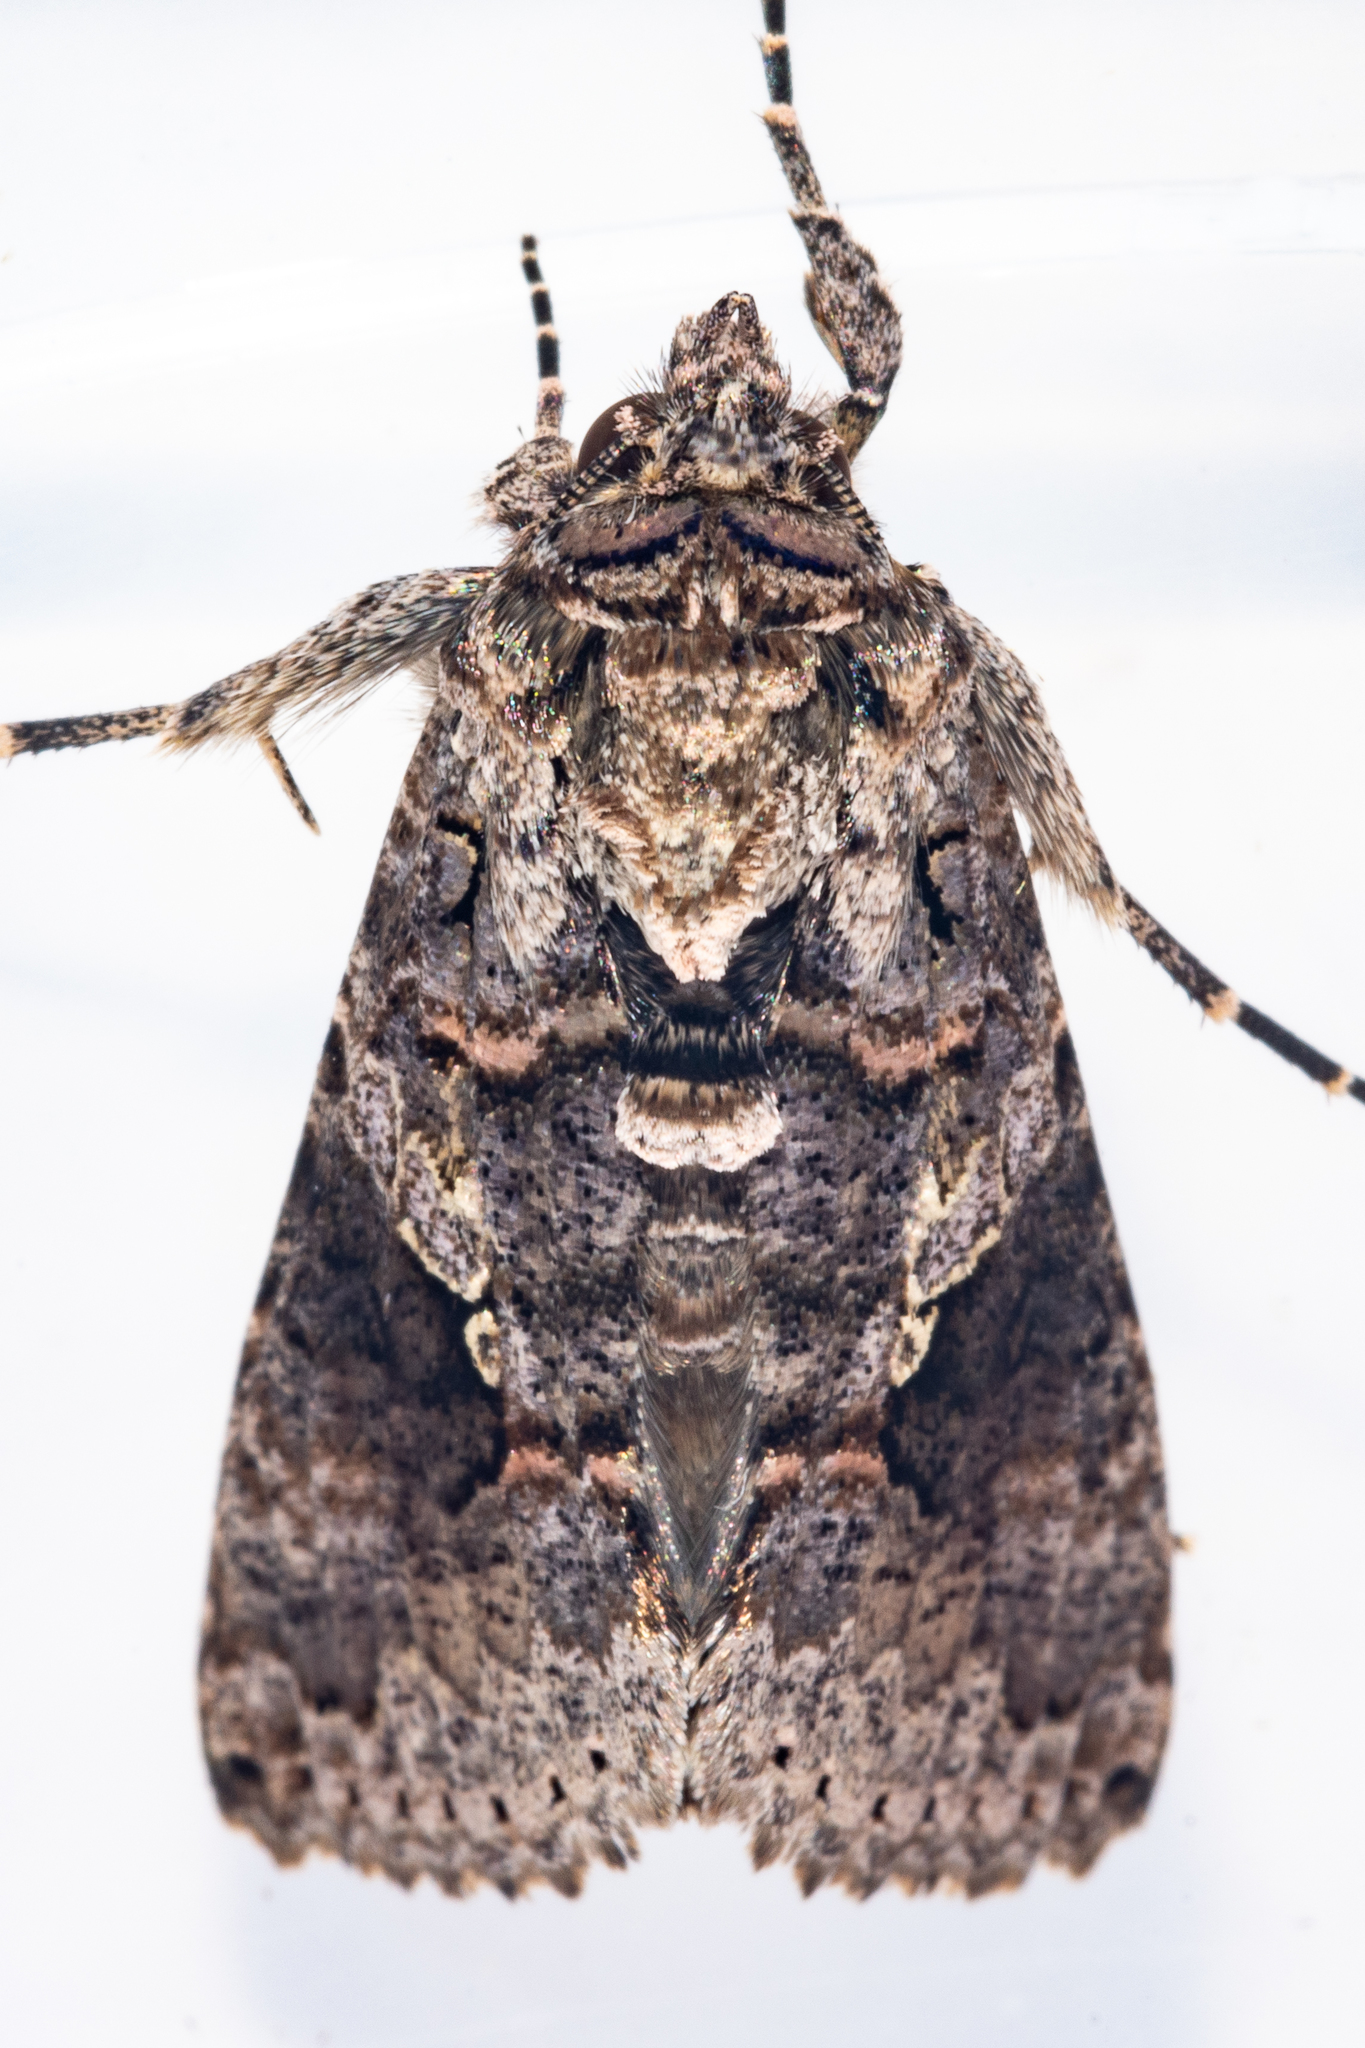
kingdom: Animalia
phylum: Arthropoda
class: Insecta
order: Lepidoptera
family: Noctuidae
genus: Ctenoplusia
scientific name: Ctenoplusia furcifera
